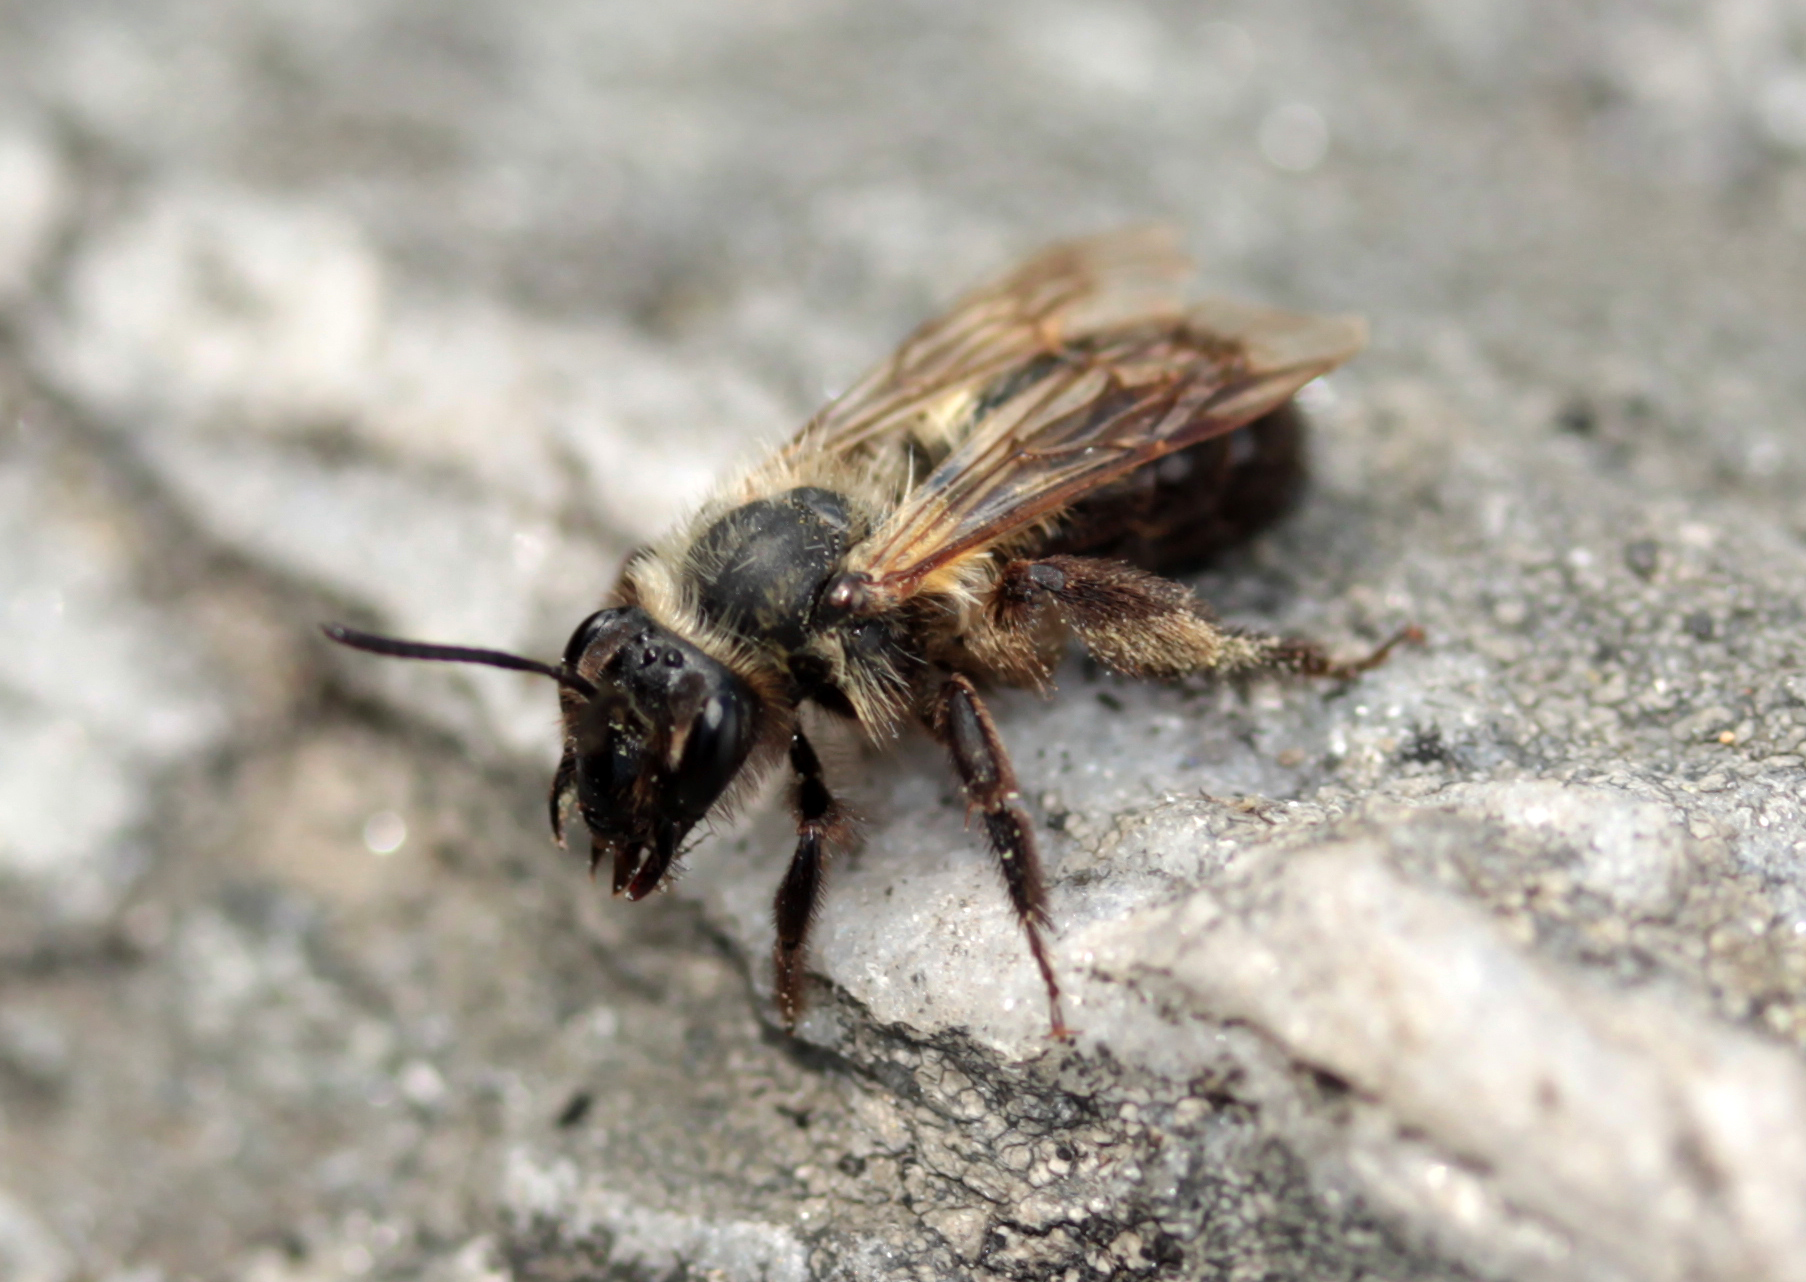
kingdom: Animalia
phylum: Arthropoda
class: Insecta
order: Hymenoptera
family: Andrenidae
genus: Andrena
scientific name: Andrena milwaukeensis
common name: Milwaukee mining bee
